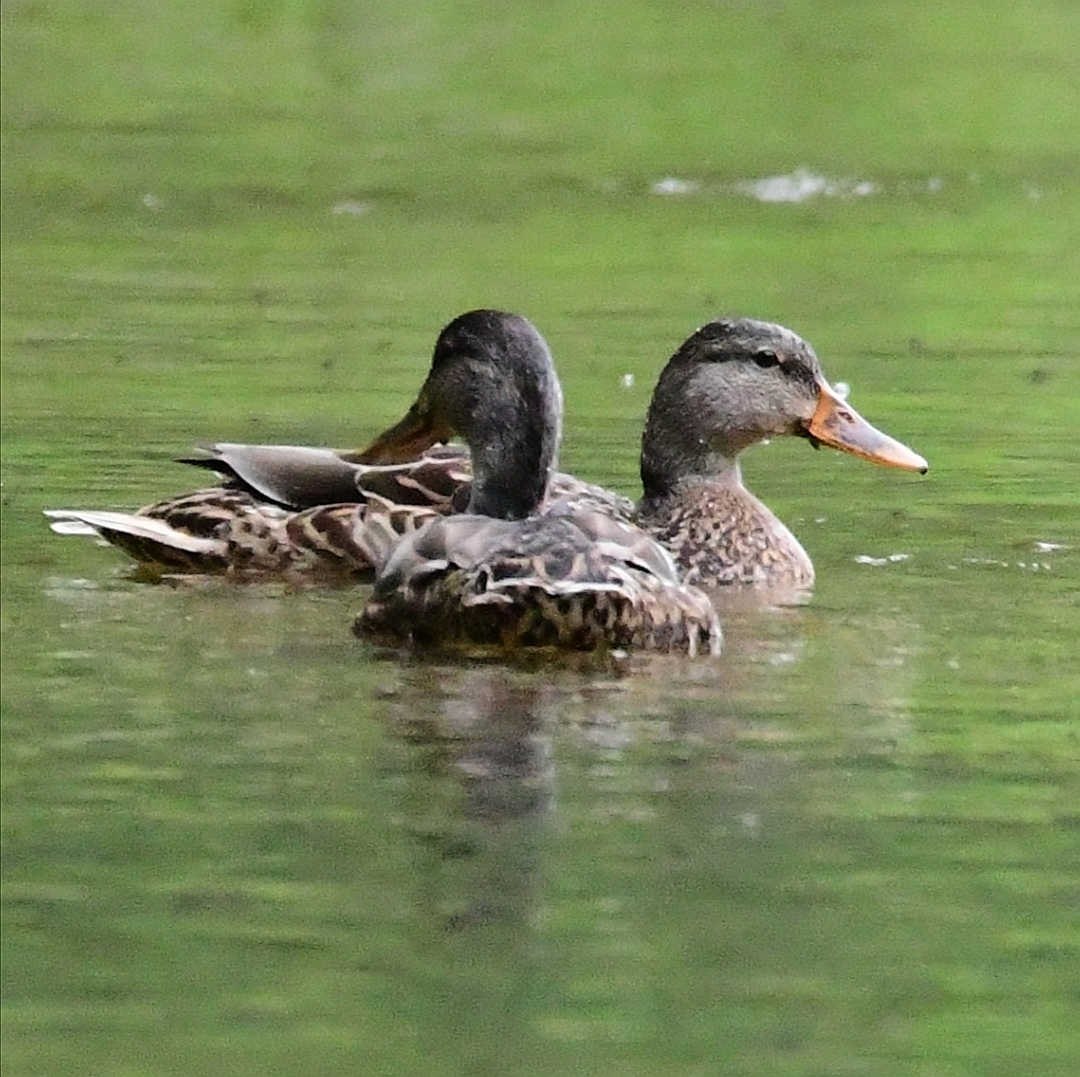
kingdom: Animalia
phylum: Chordata
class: Aves
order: Anseriformes
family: Anatidae
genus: Anas
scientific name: Anas platyrhynchos
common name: Mallard
